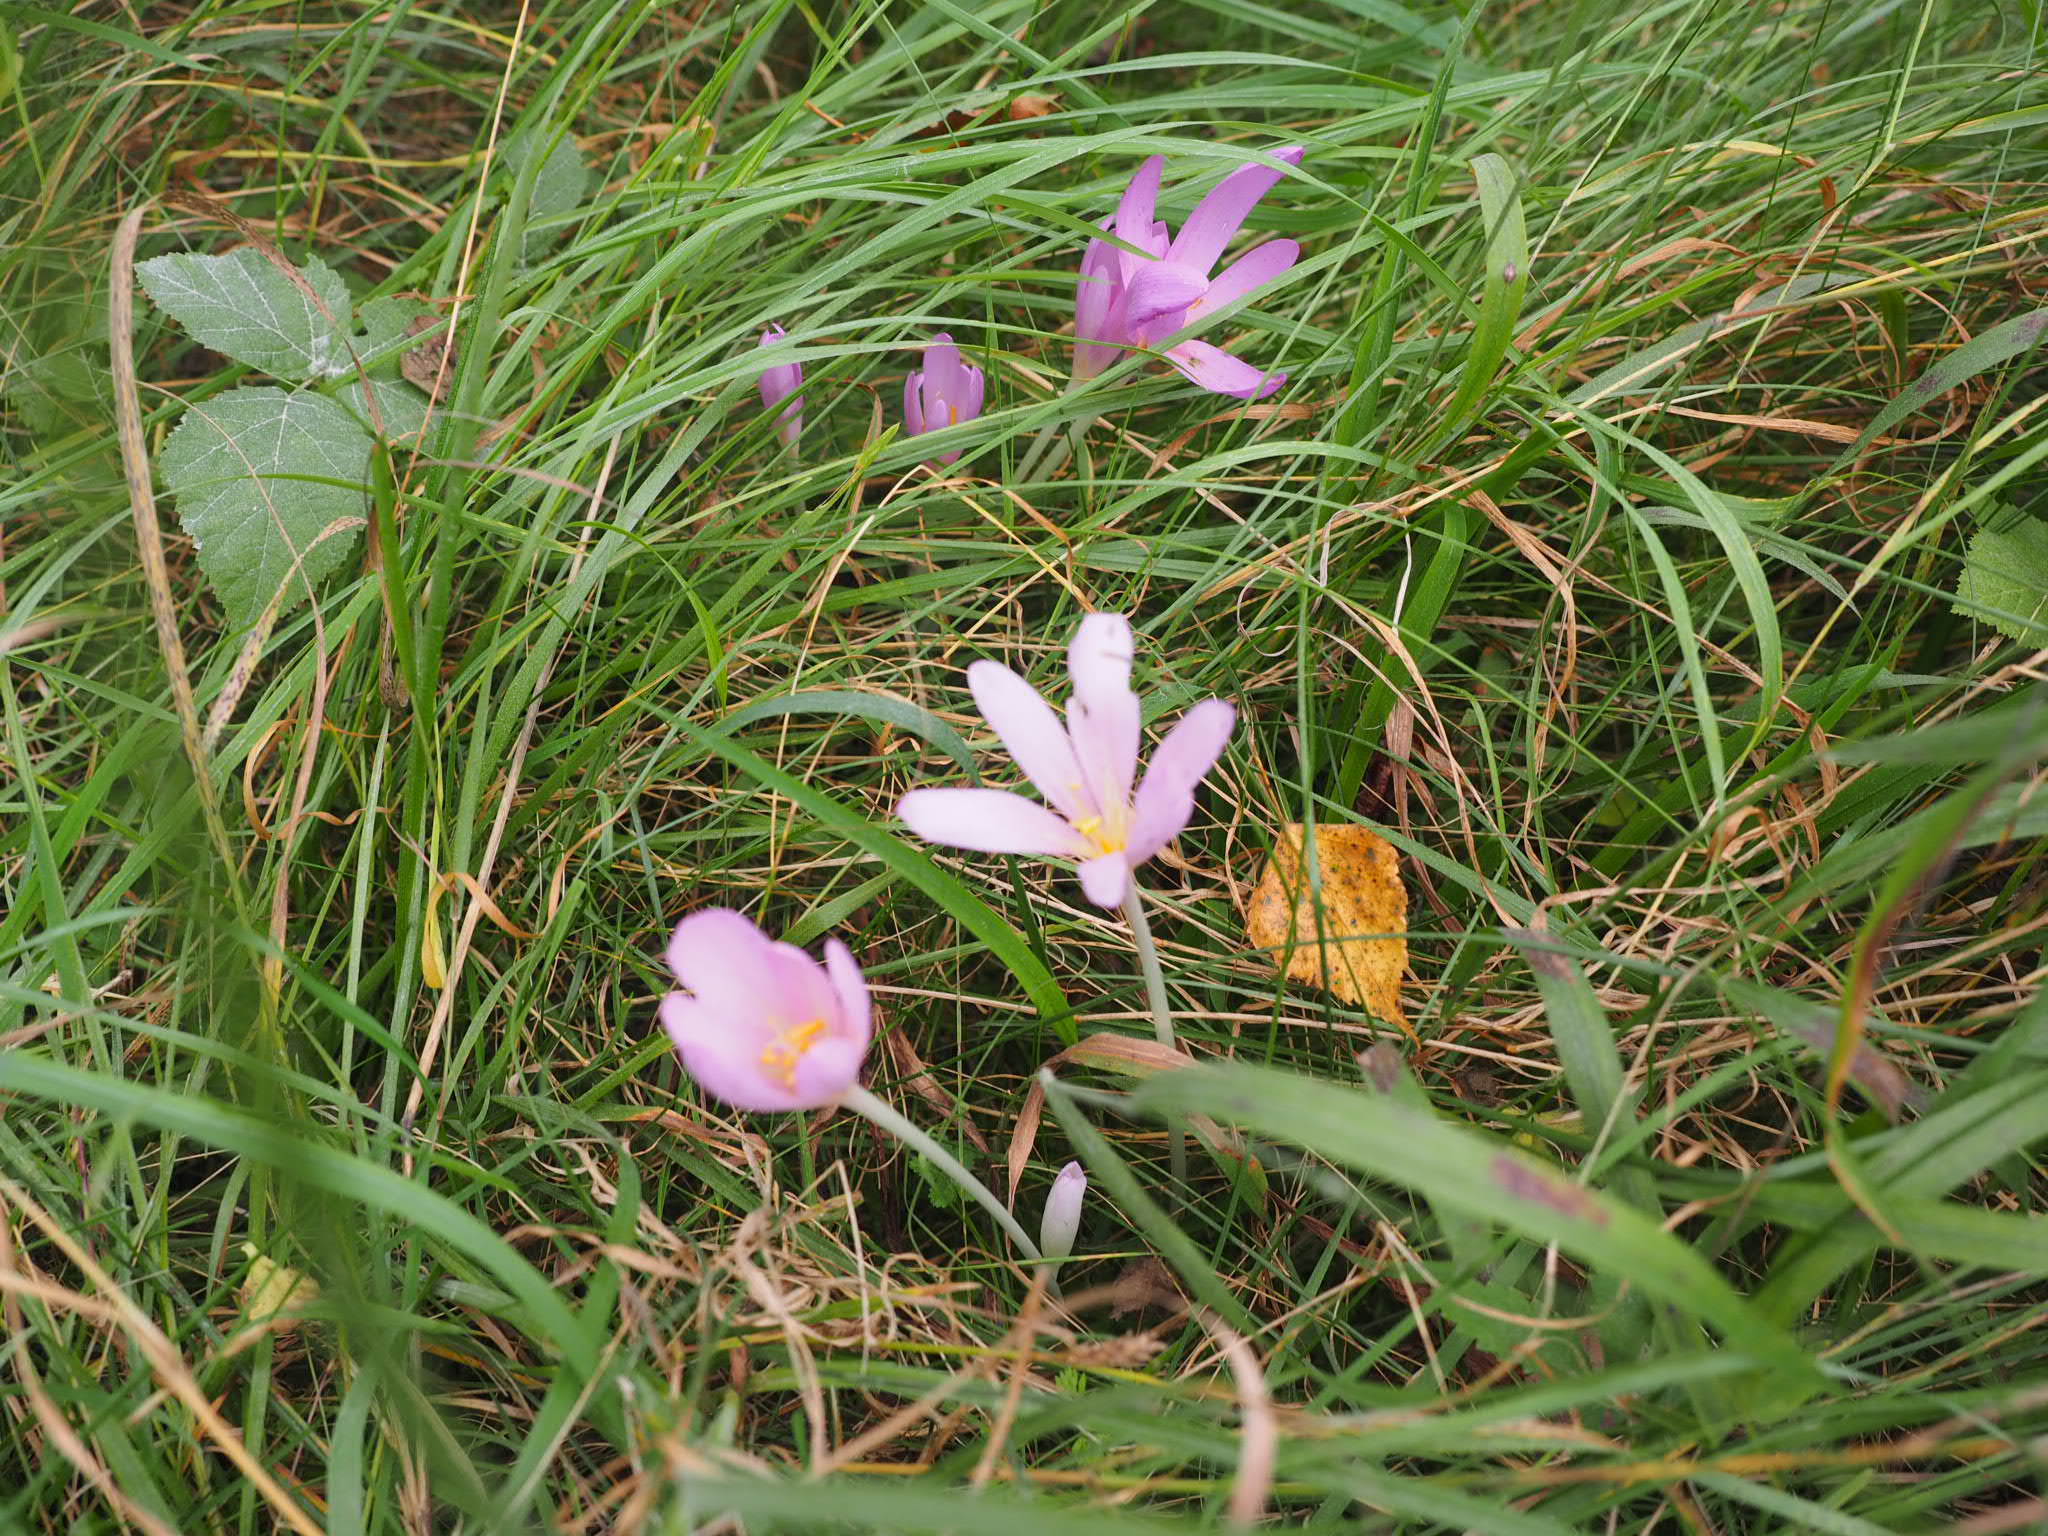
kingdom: Plantae
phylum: Tracheophyta
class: Liliopsida
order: Liliales
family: Colchicaceae
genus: Colchicum
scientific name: Colchicum autumnale
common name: Autumn crocus
